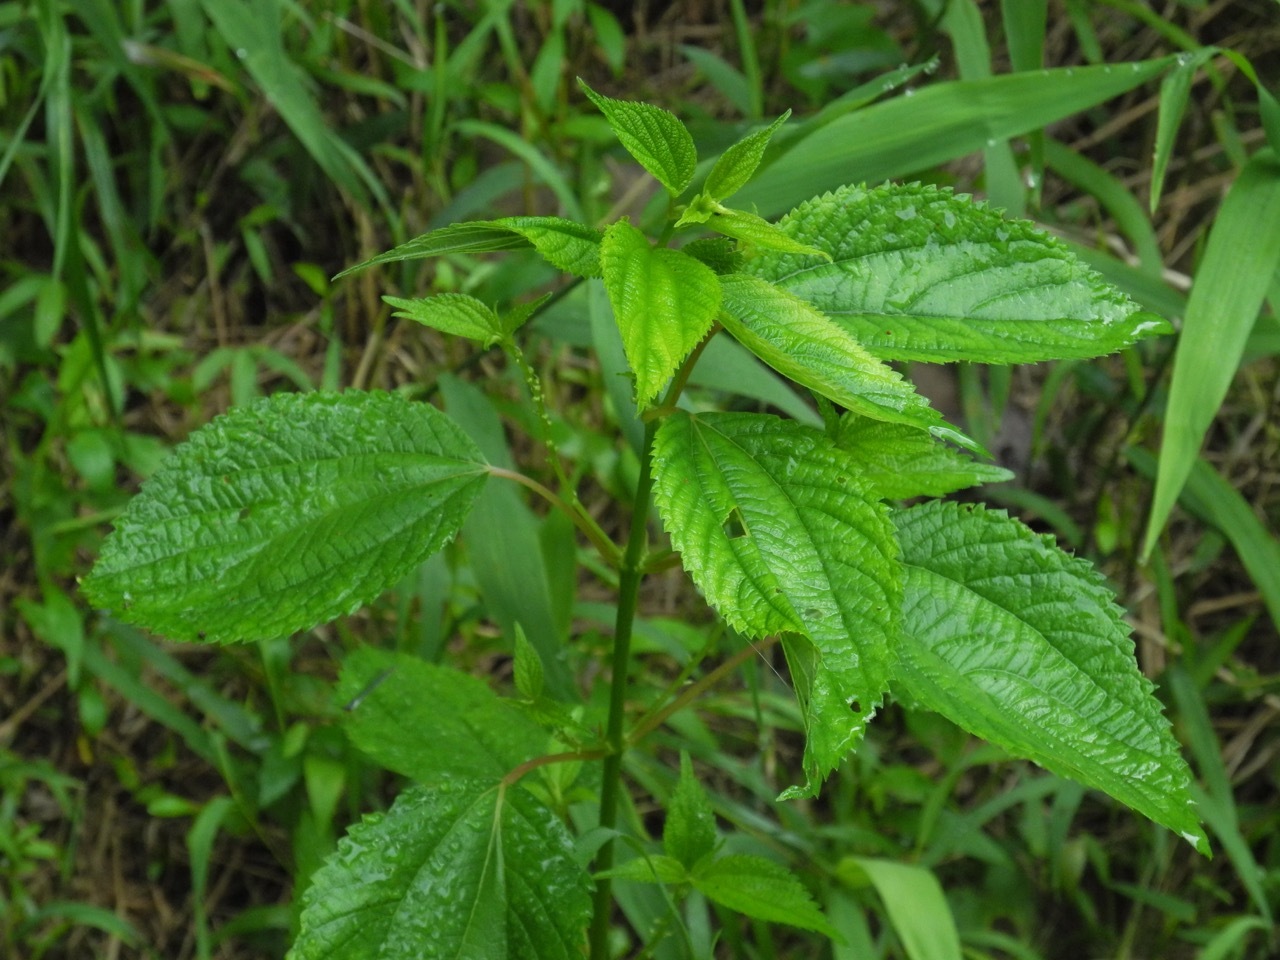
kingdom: Plantae
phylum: Tracheophyta
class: Magnoliopsida
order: Rosales
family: Urticaceae
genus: Boehmeria
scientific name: Boehmeria cylindrica
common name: Bog-hemp
